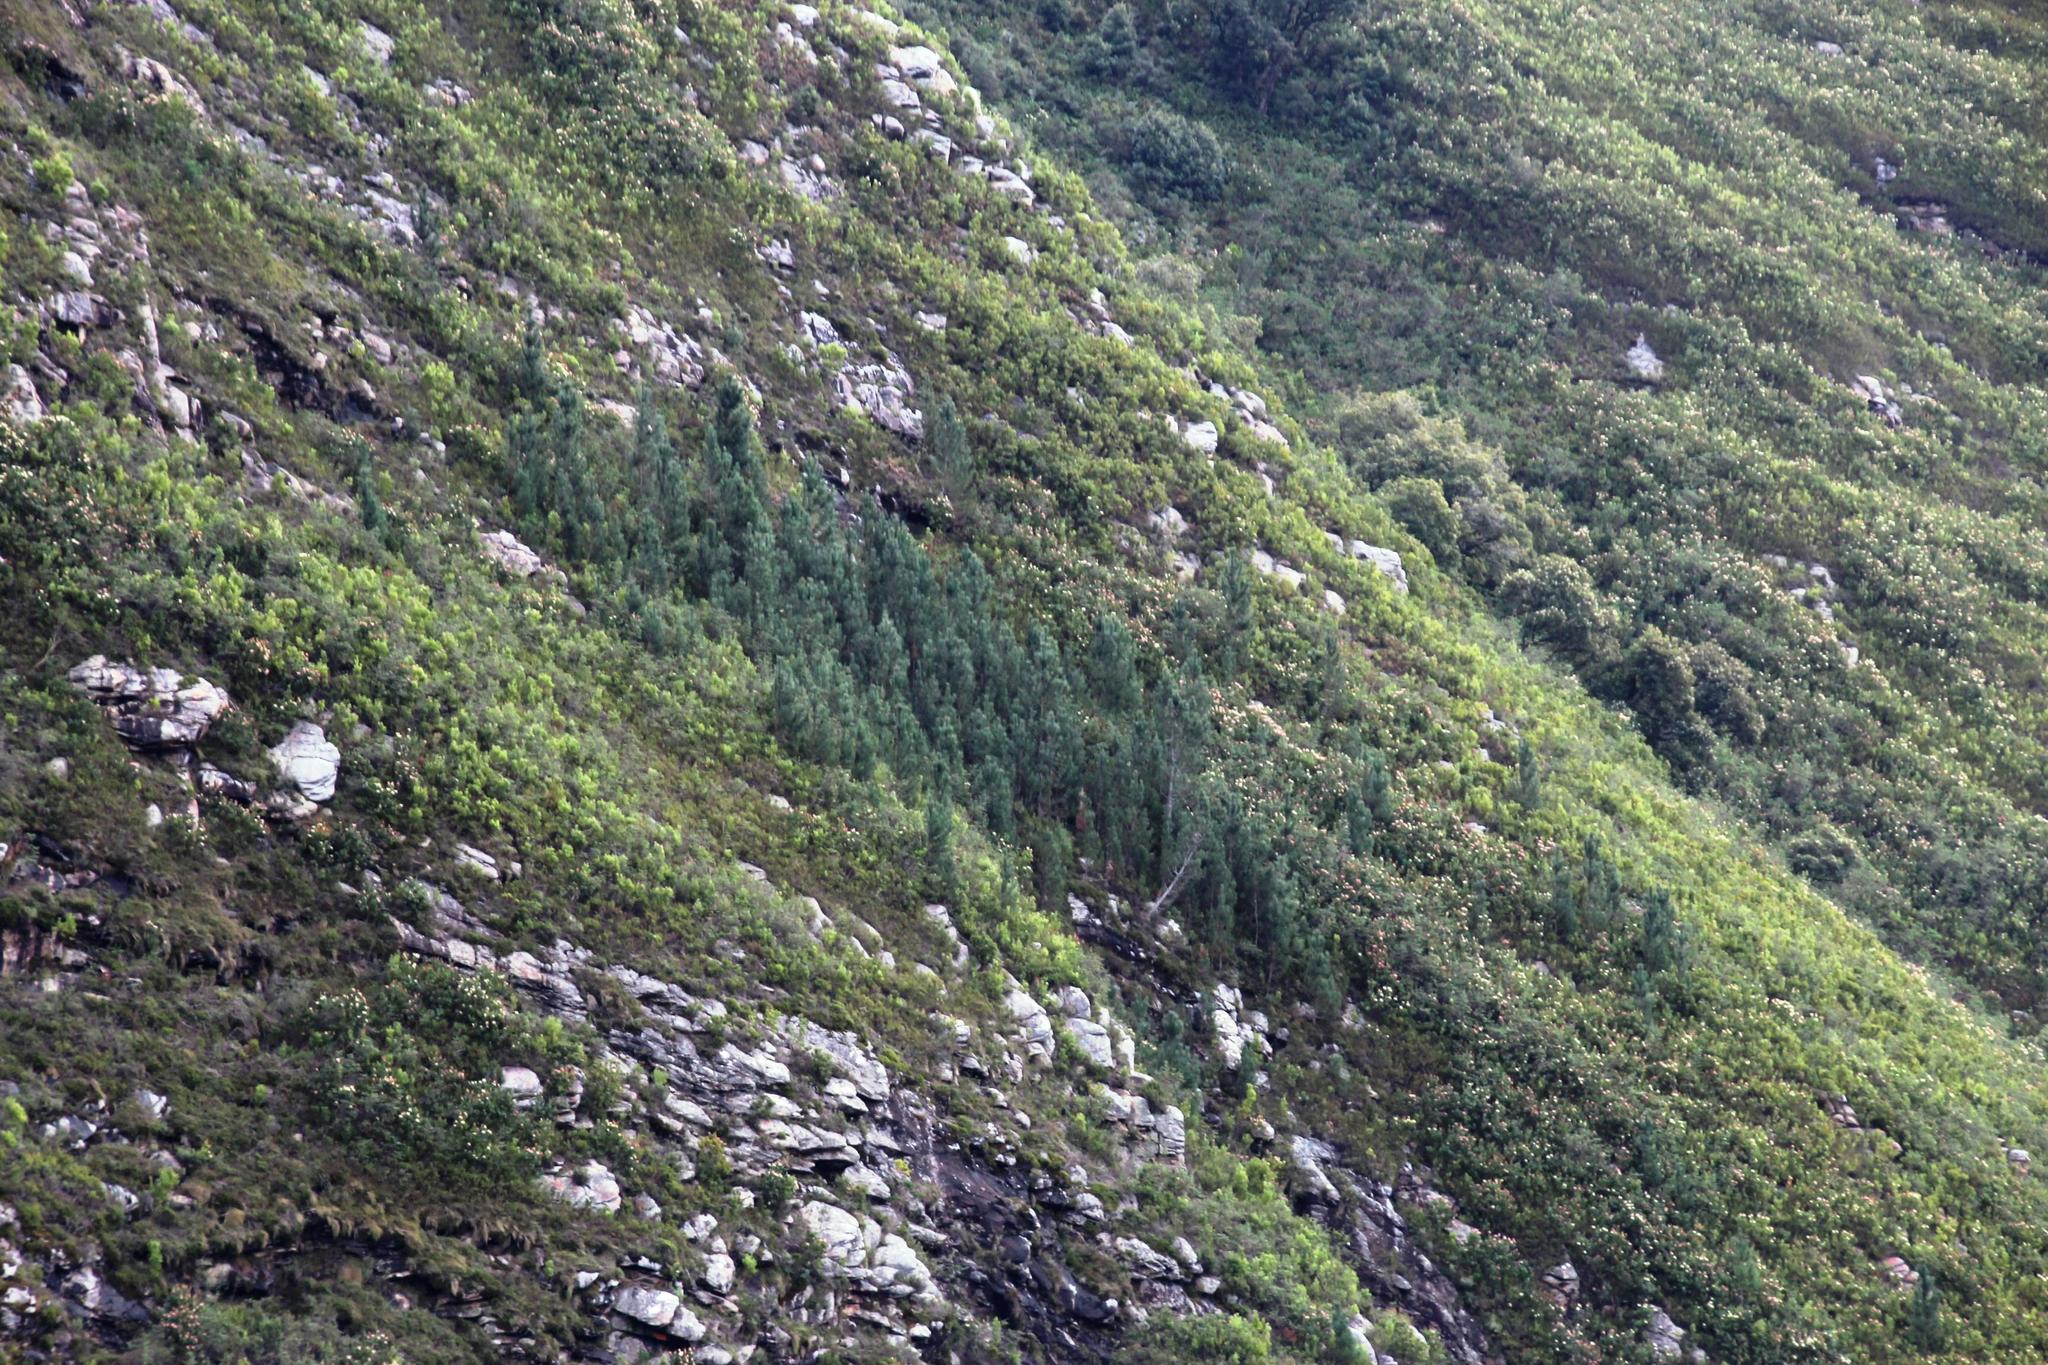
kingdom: Plantae
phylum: Tracheophyta
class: Pinopsida
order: Pinales
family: Pinaceae
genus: Pinus
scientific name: Pinus pinaster
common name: Maritime pine
